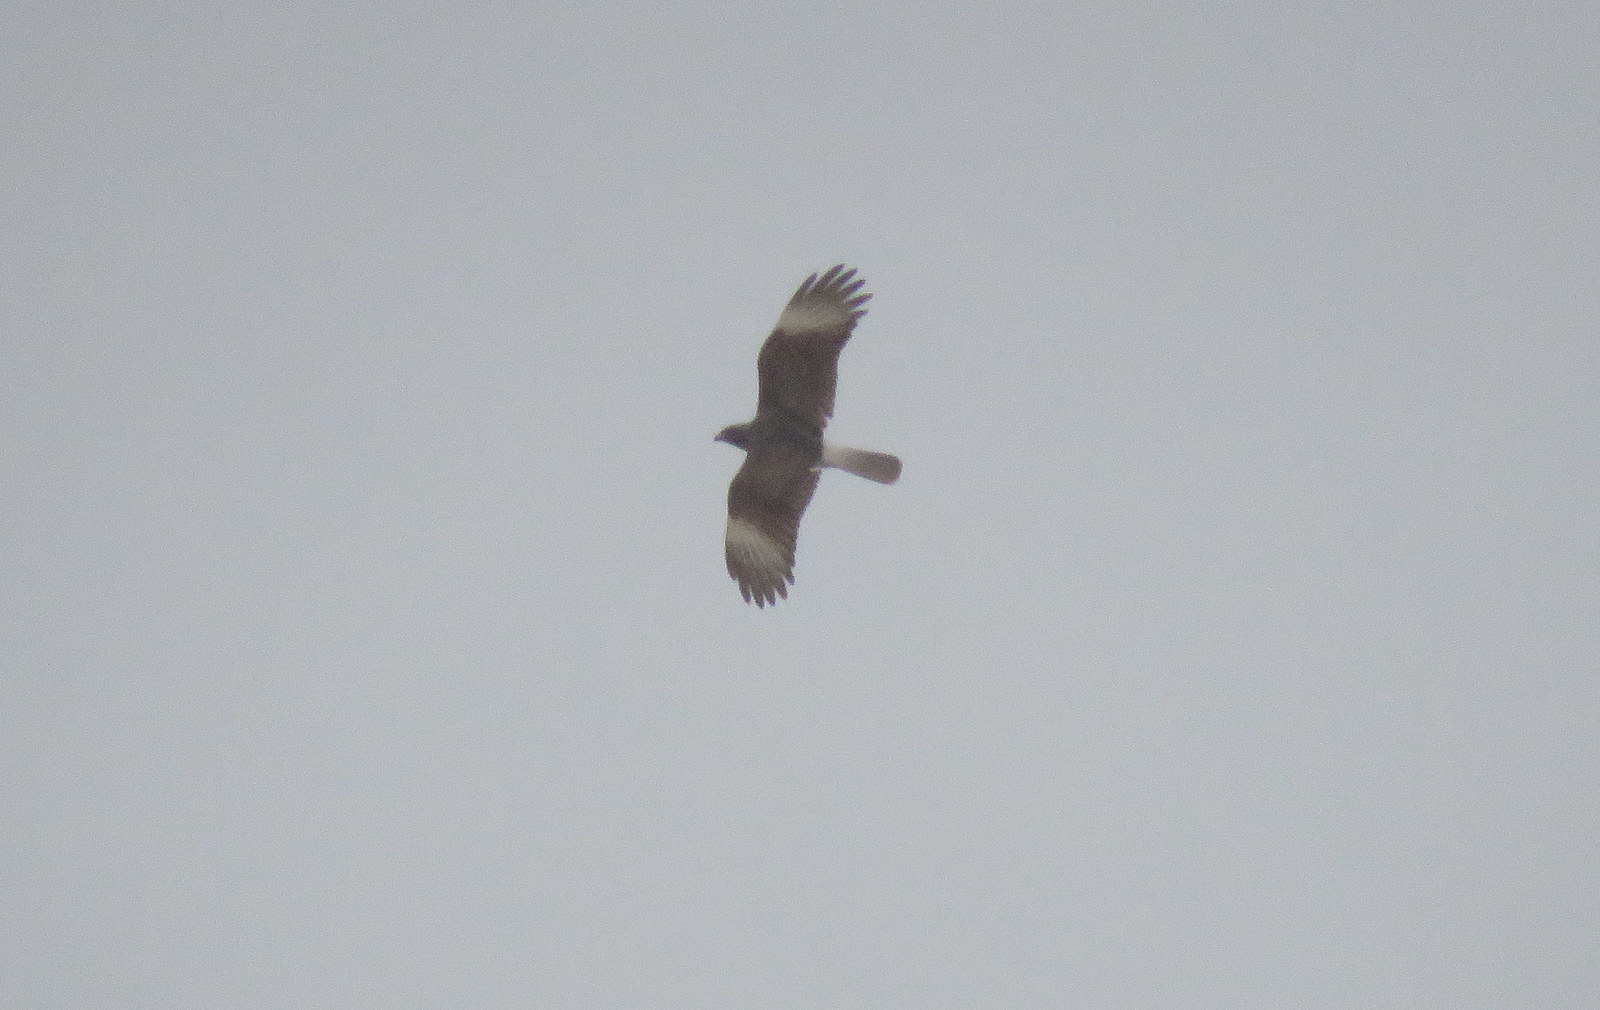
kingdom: Animalia
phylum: Chordata
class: Aves
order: Falconiformes
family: Falconidae
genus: Daptrius
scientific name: Daptrius
